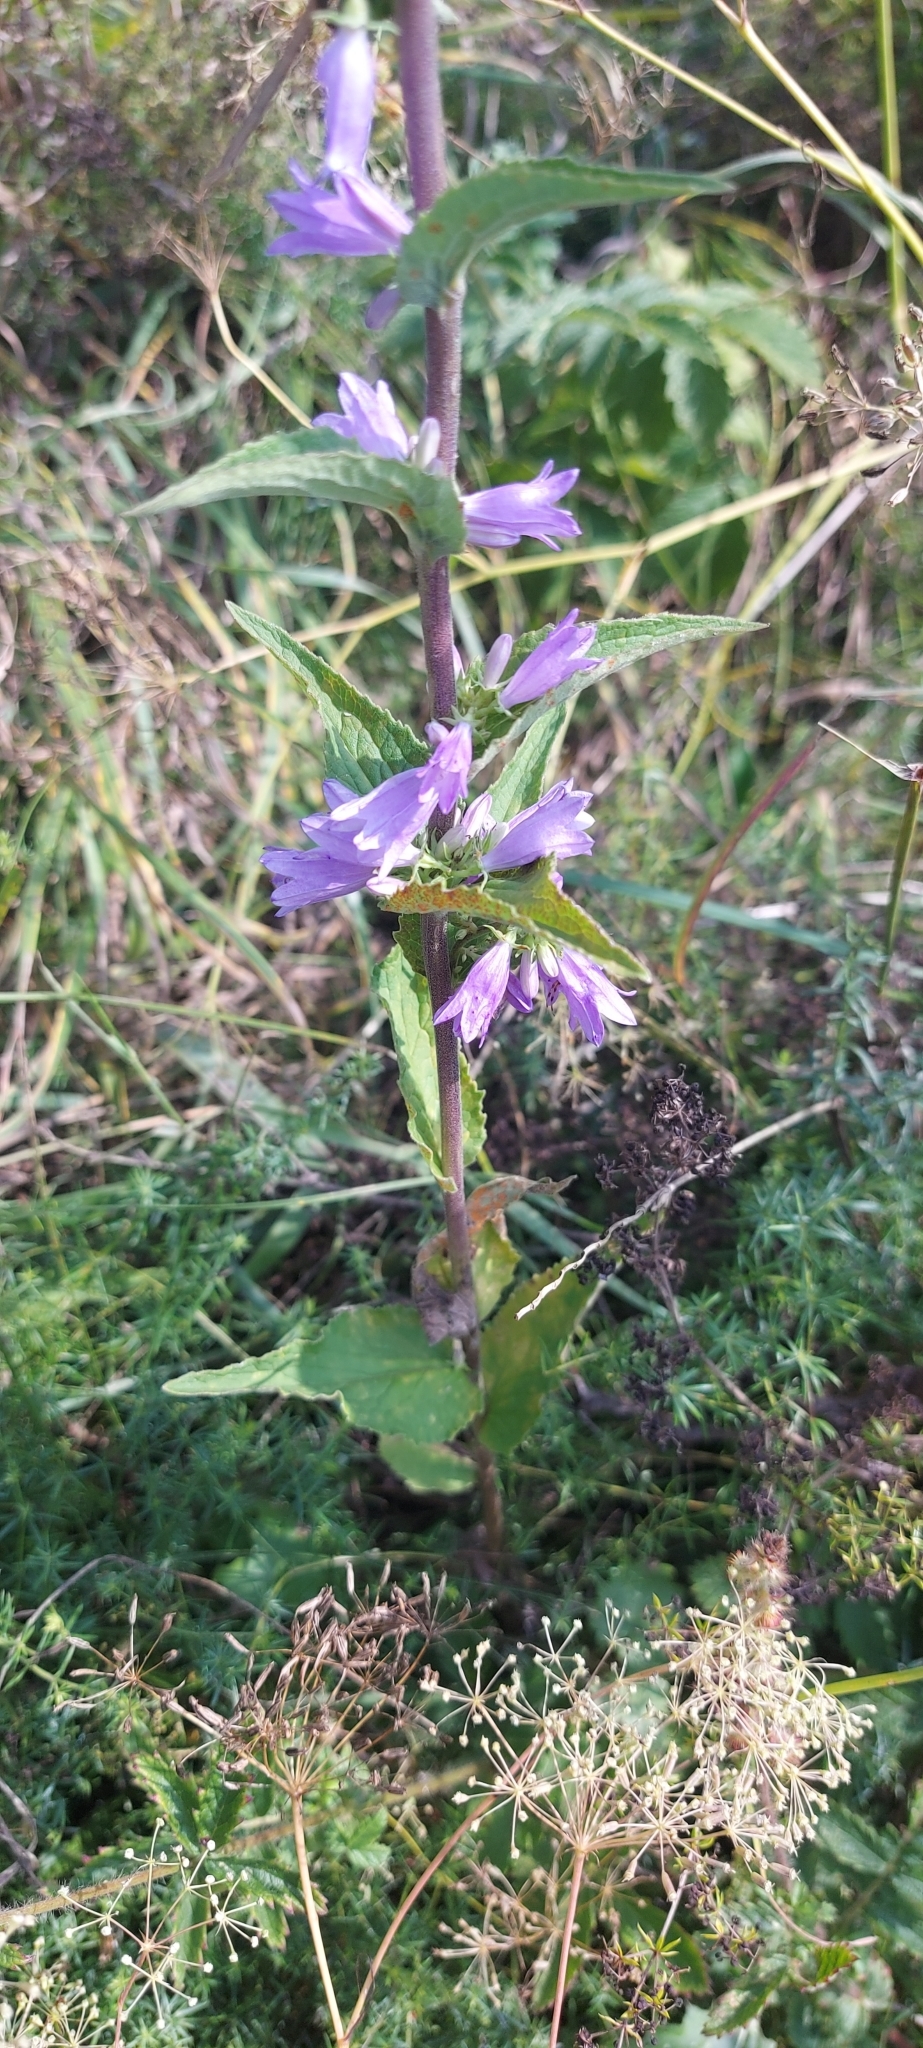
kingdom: Plantae
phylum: Tracheophyta
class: Magnoliopsida
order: Asterales
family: Campanulaceae
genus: Campanula
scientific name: Campanula bononiensis
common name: Pale bellflower
